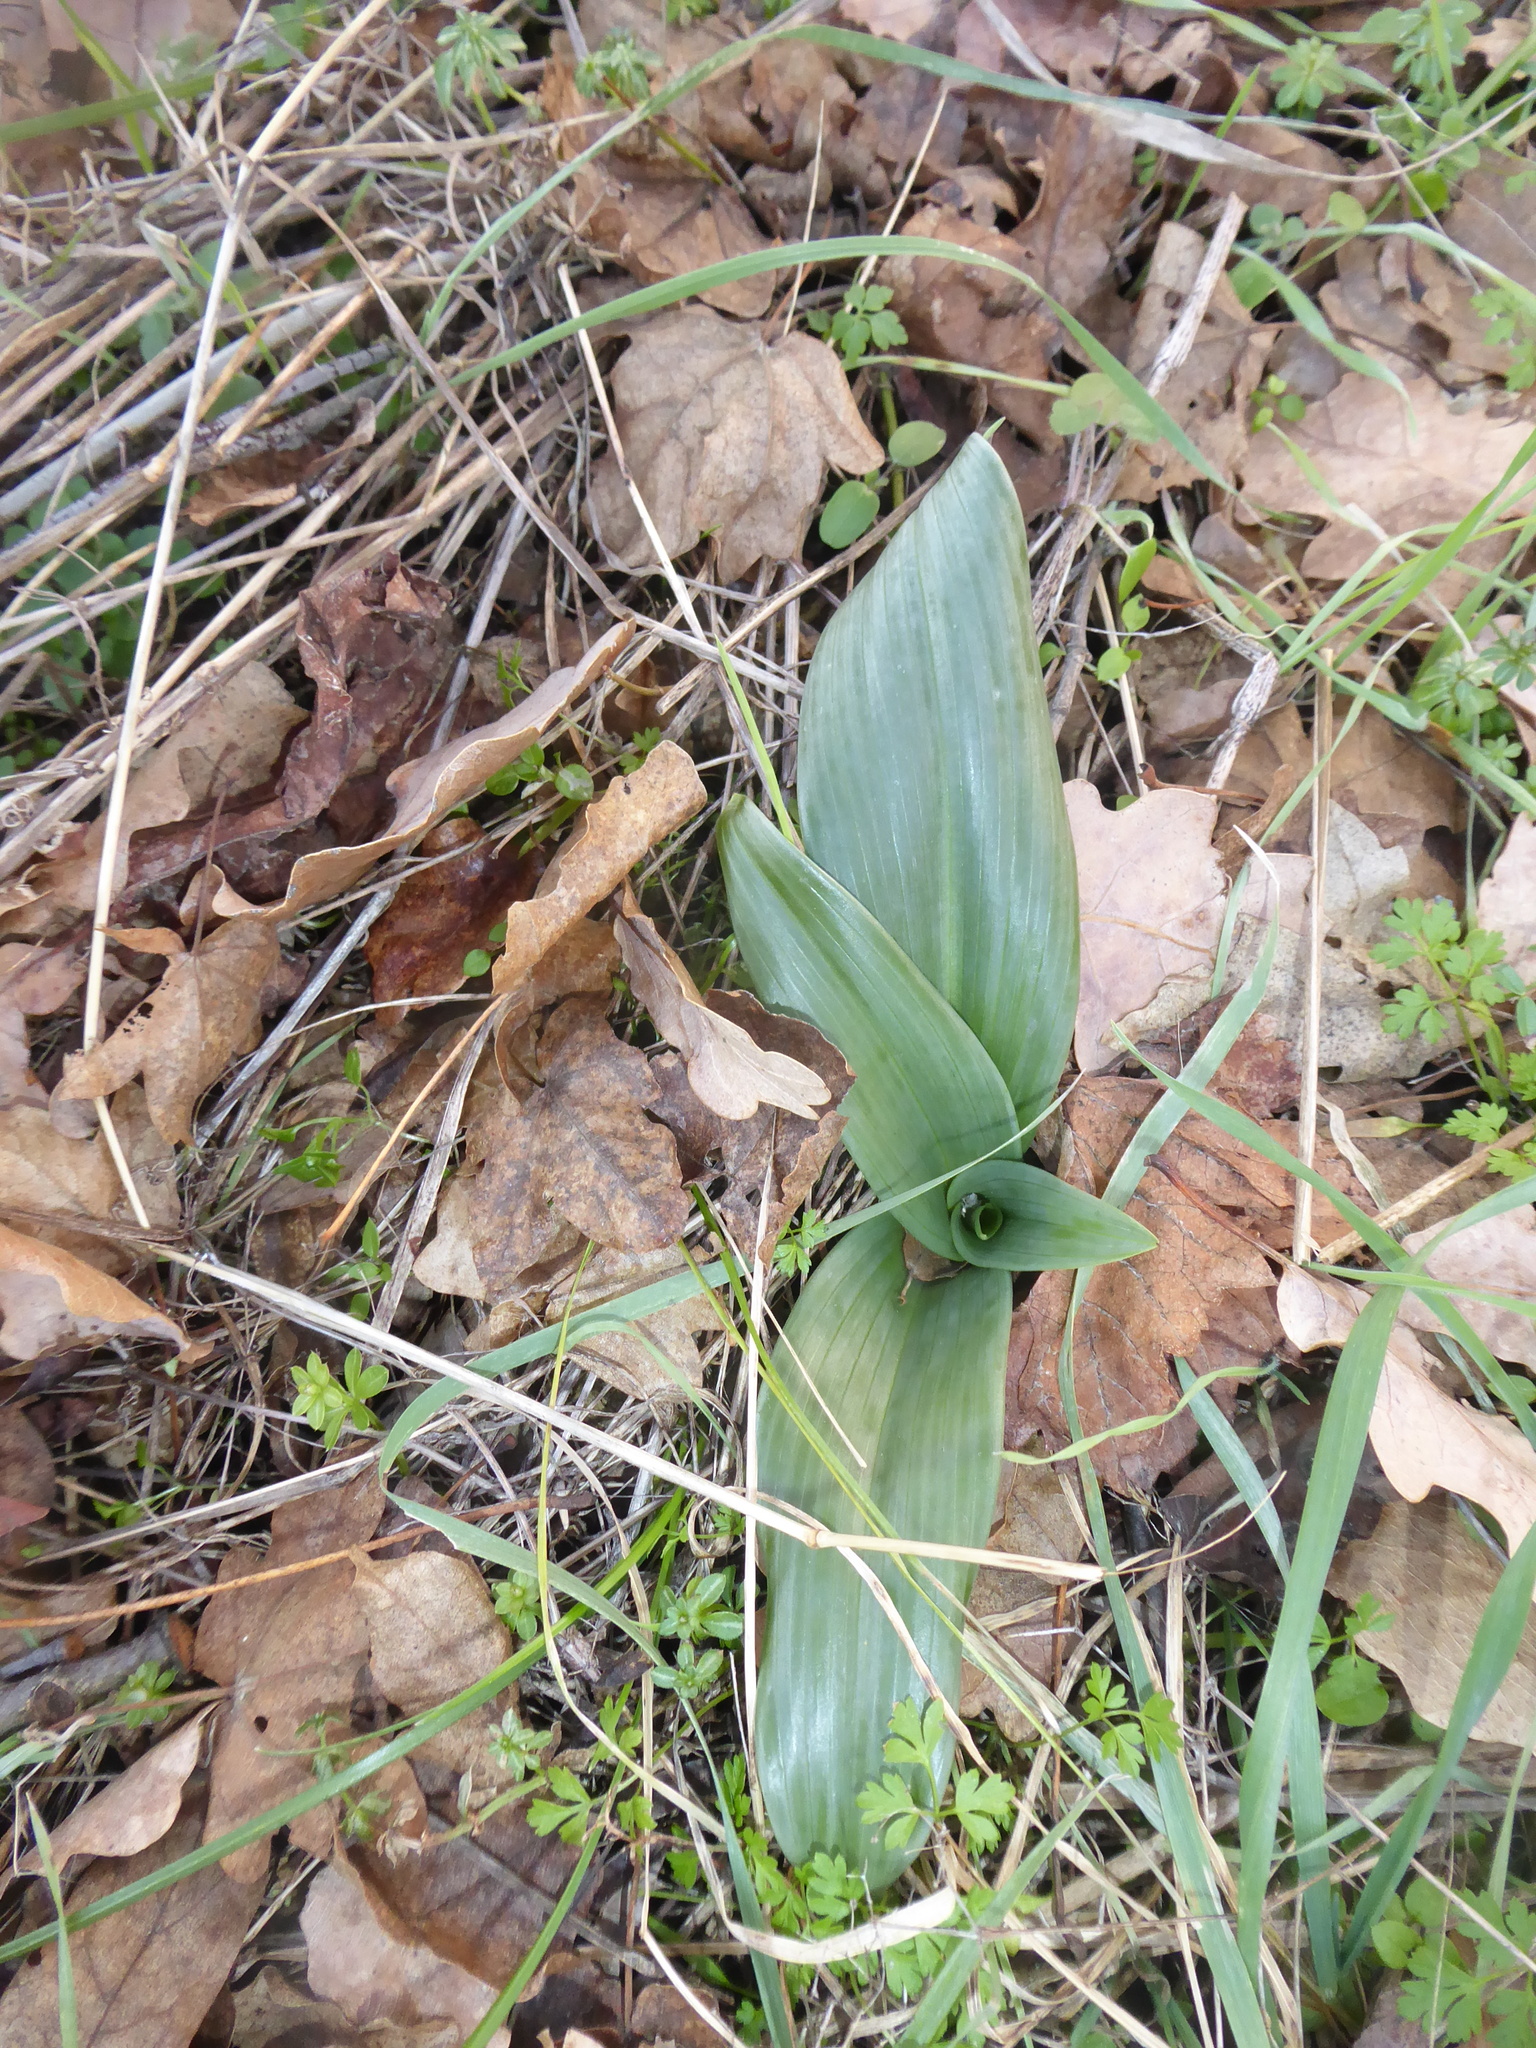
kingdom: Plantae
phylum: Tracheophyta
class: Liliopsida
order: Asparagales
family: Orchidaceae
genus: Himantoglossum
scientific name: Himantoglossum adriaticum
